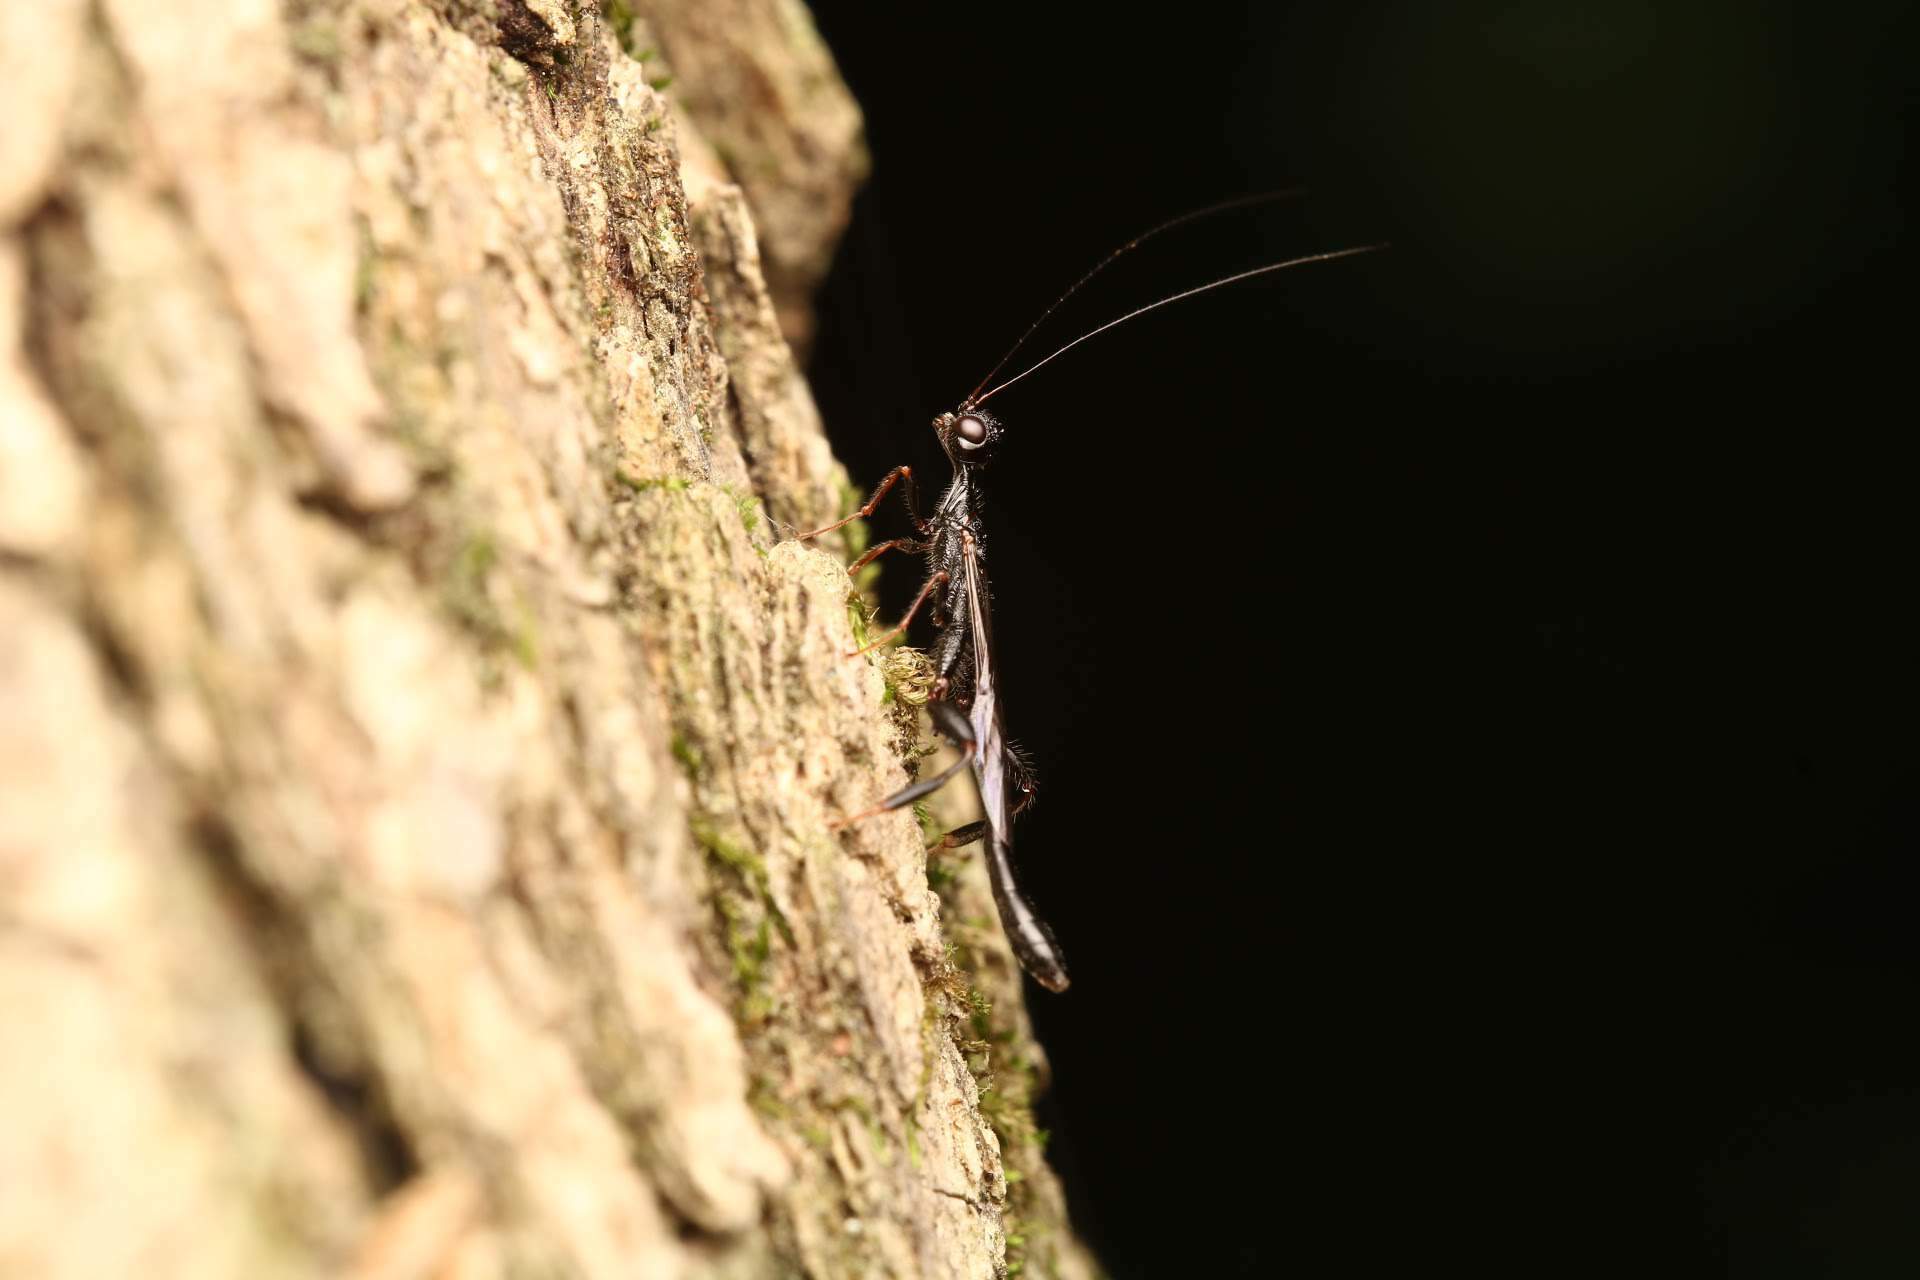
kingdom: Animalia
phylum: Arthropoda
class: Insecta
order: Hymenoptera
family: Stephanidae
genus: Megischus
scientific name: Megischus
